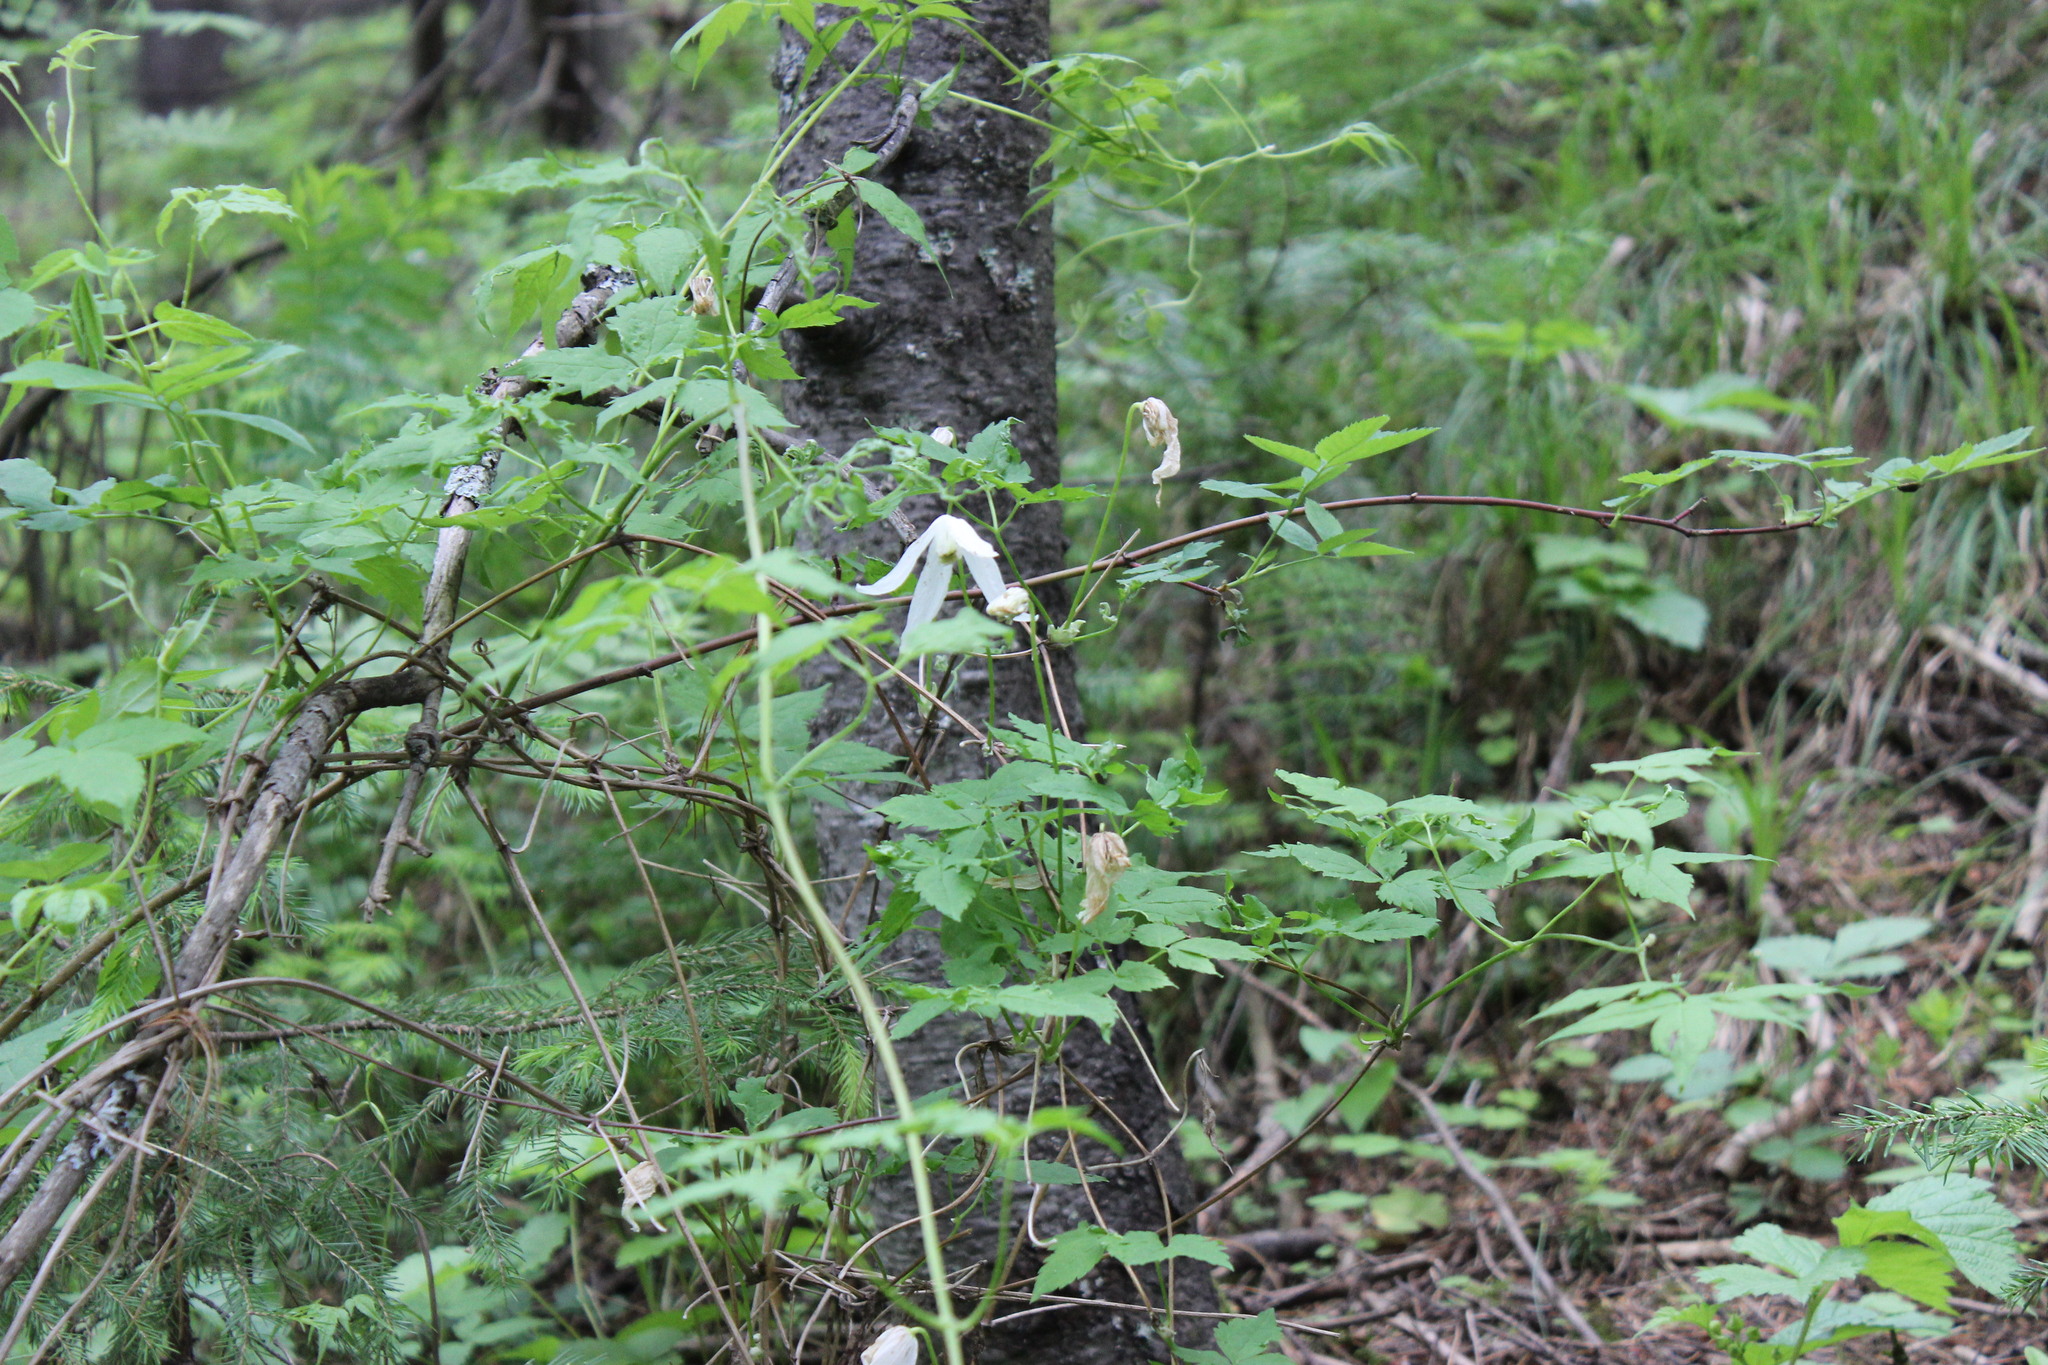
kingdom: Plantae
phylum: Tracheophyta
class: Magnoliopsida
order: Ranunculales
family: Ranunculaceae
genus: Clematis
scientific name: Clematis sibirica
